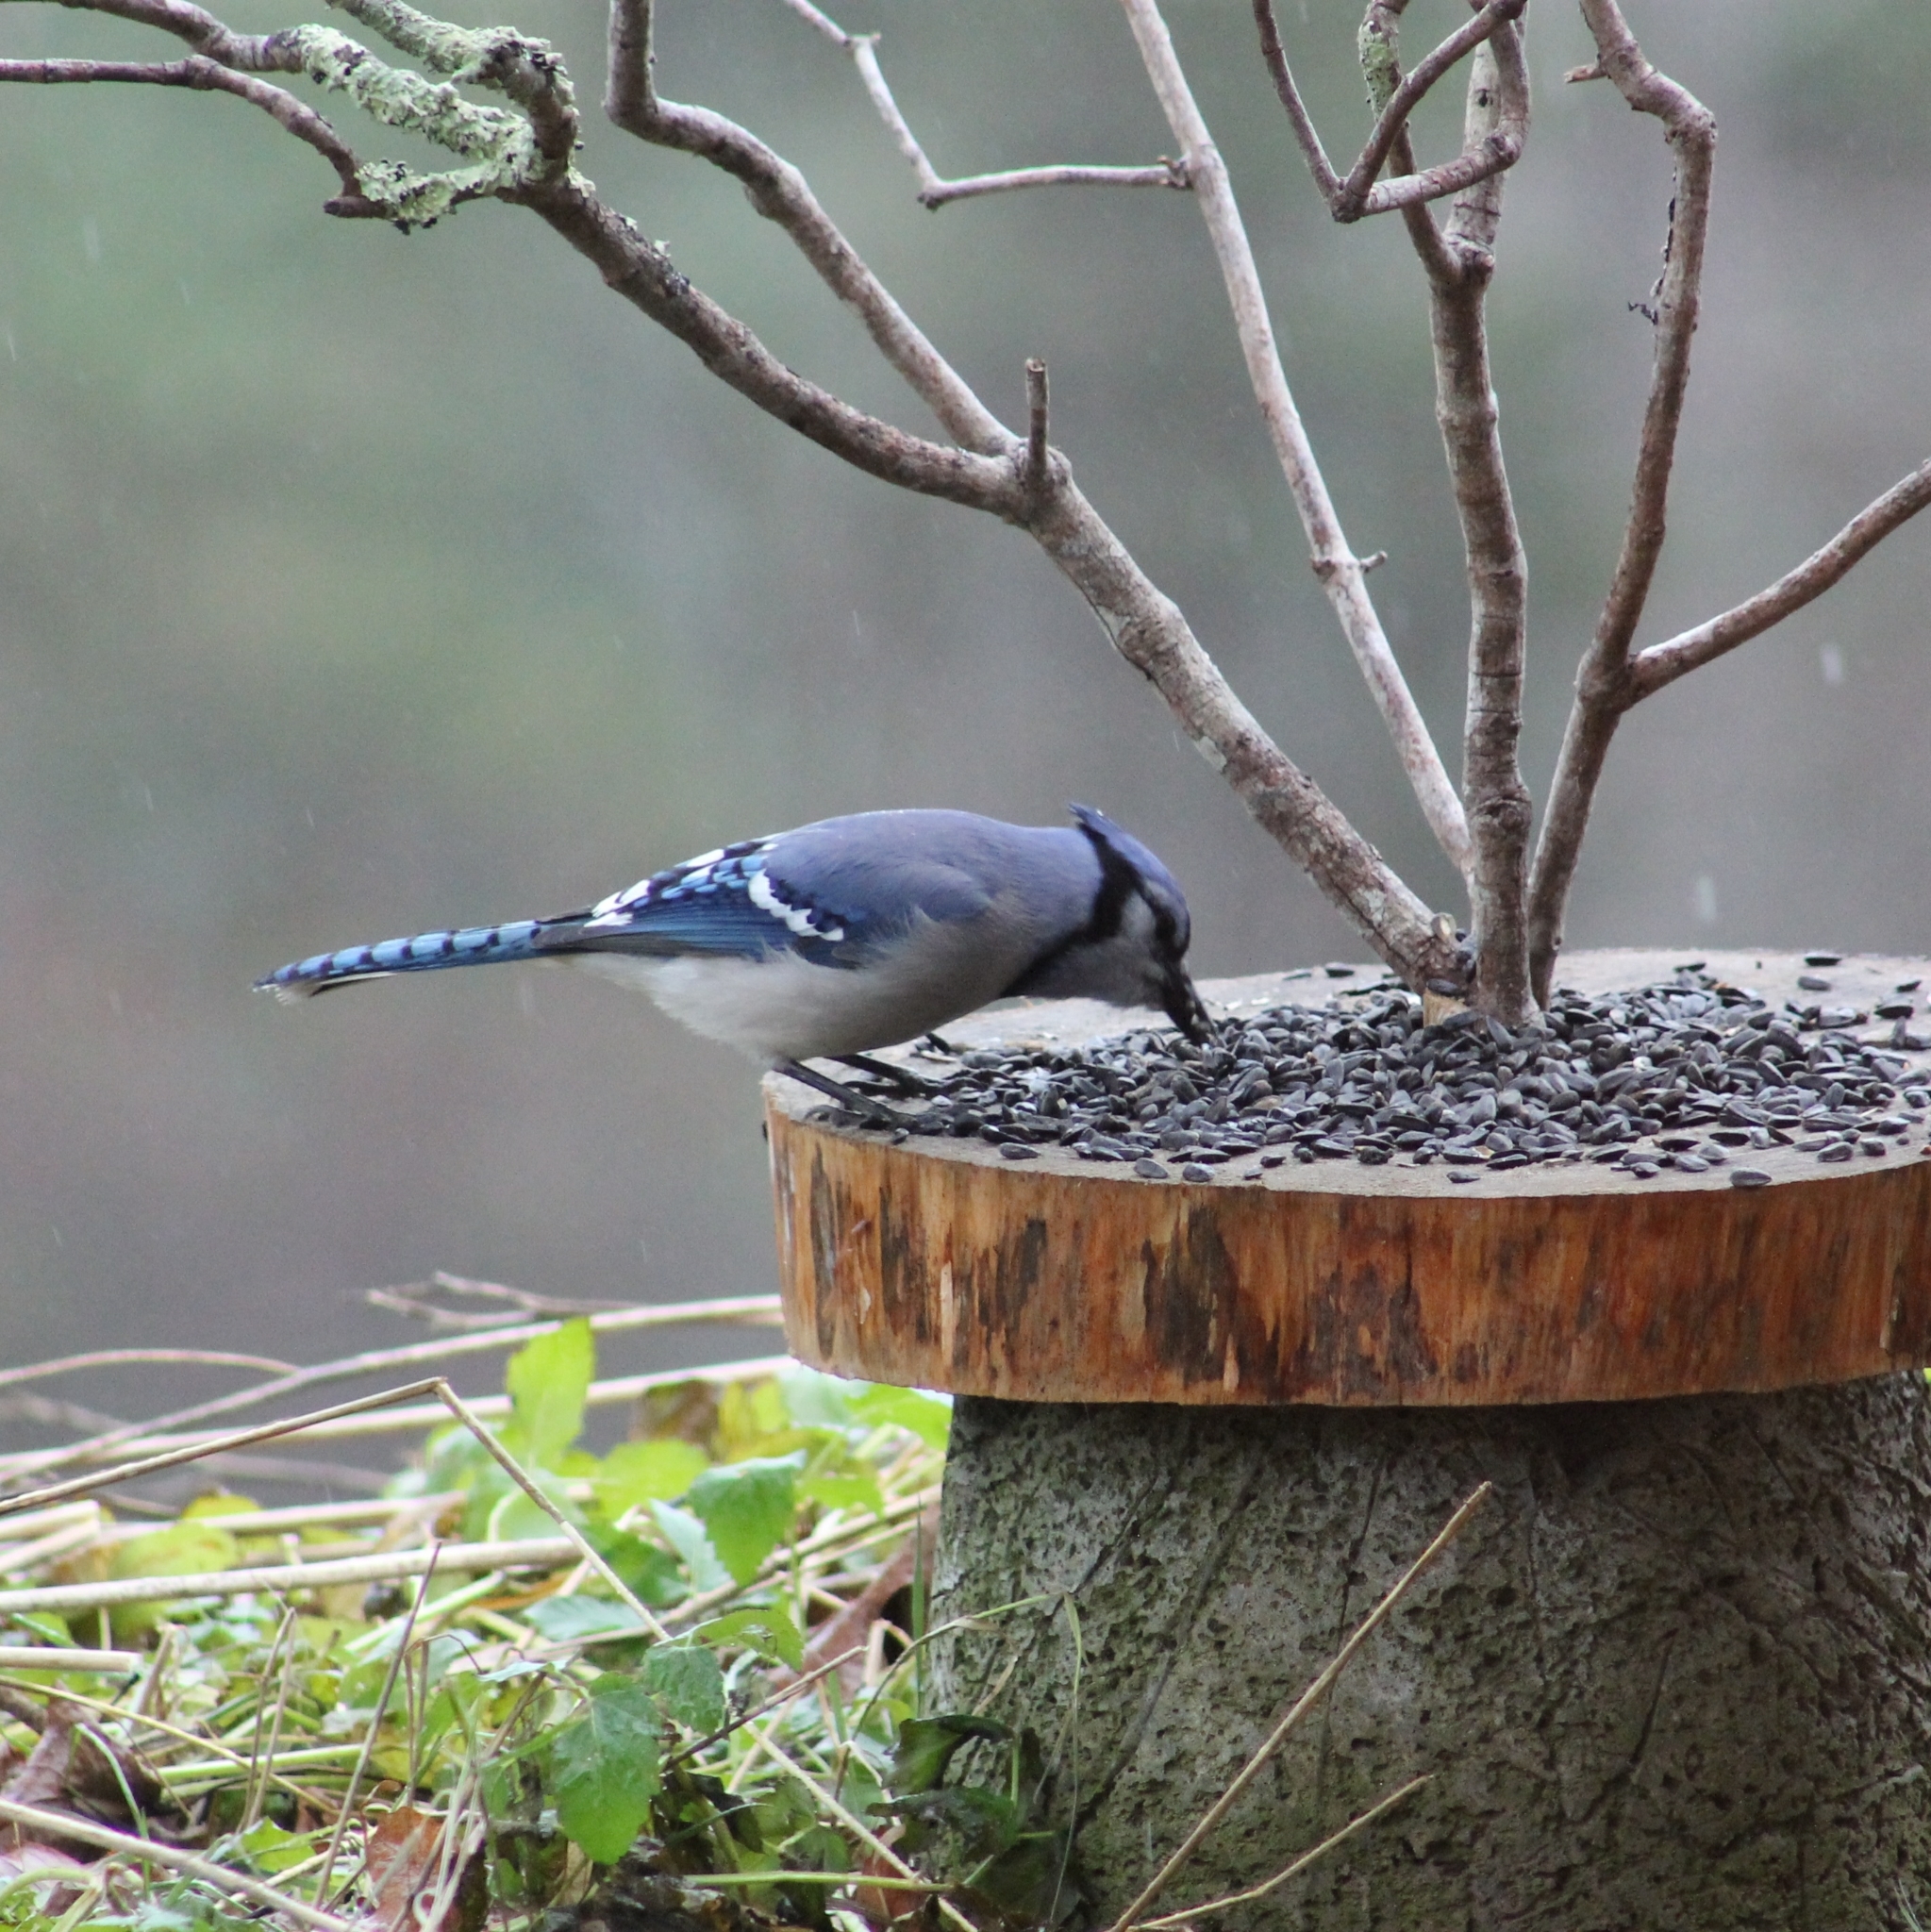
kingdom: Animalia
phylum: Chordata
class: Aves
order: Passeriformes
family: Corvidae
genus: Cyanocitta
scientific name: Cyanocitta cristata
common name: Blue jay
